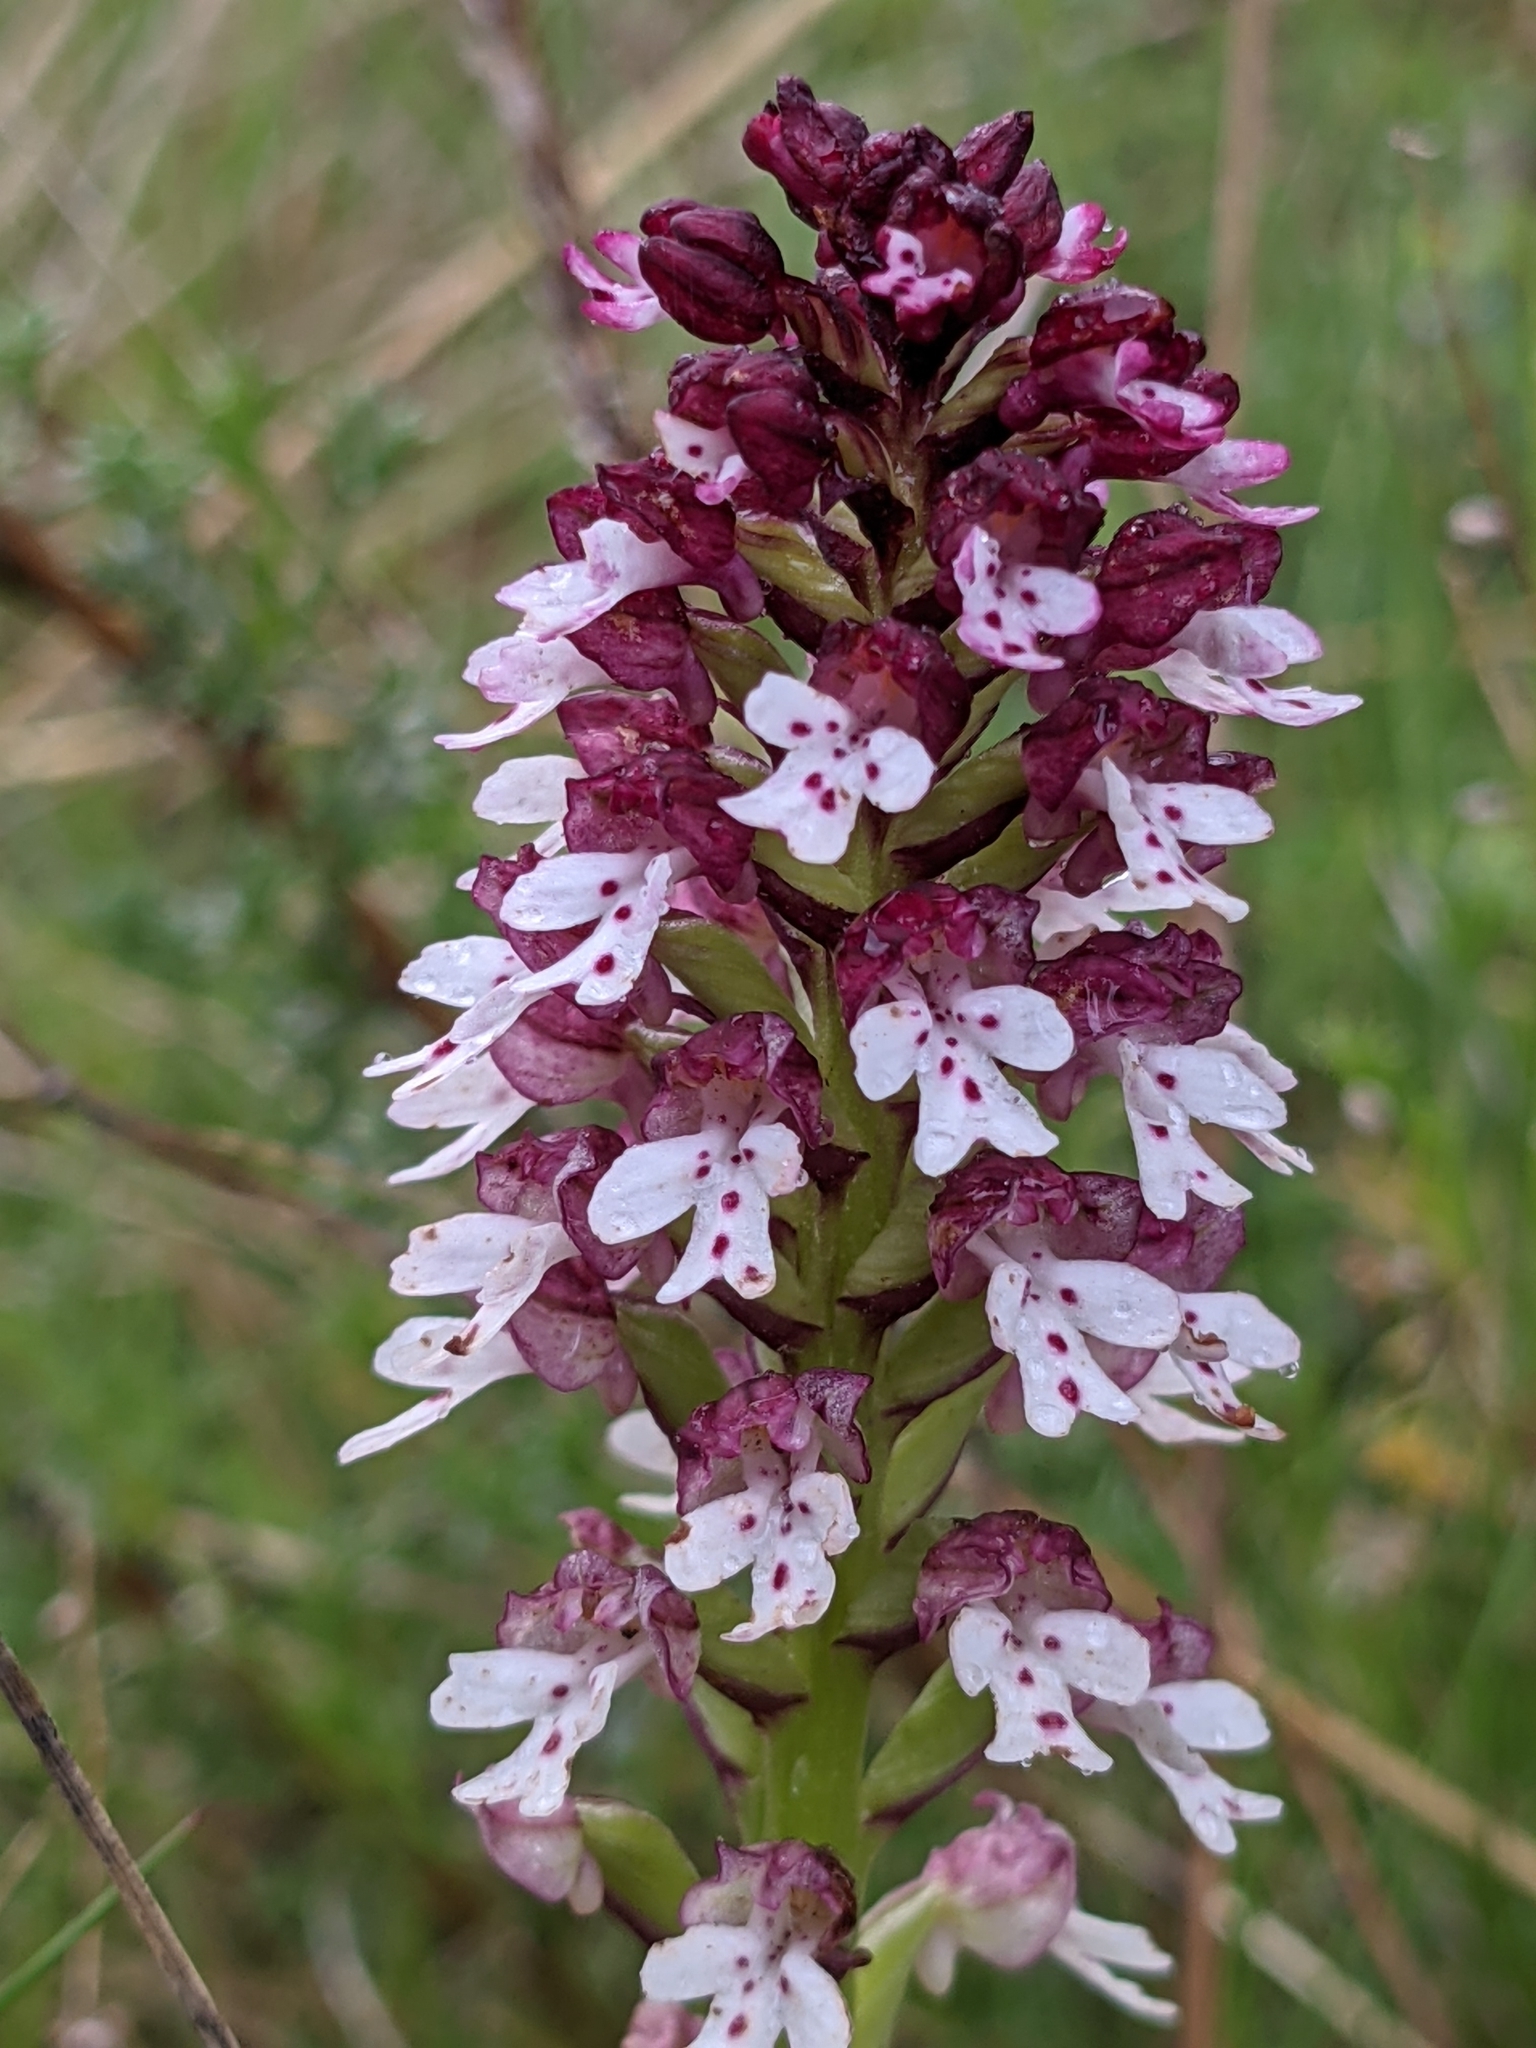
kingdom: Plantae
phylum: Tracheophyta
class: Liliopsida
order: Asparagales
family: Orchidaceae
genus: Neotinea
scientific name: Neotinea ustulata
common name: Burnt orchid
